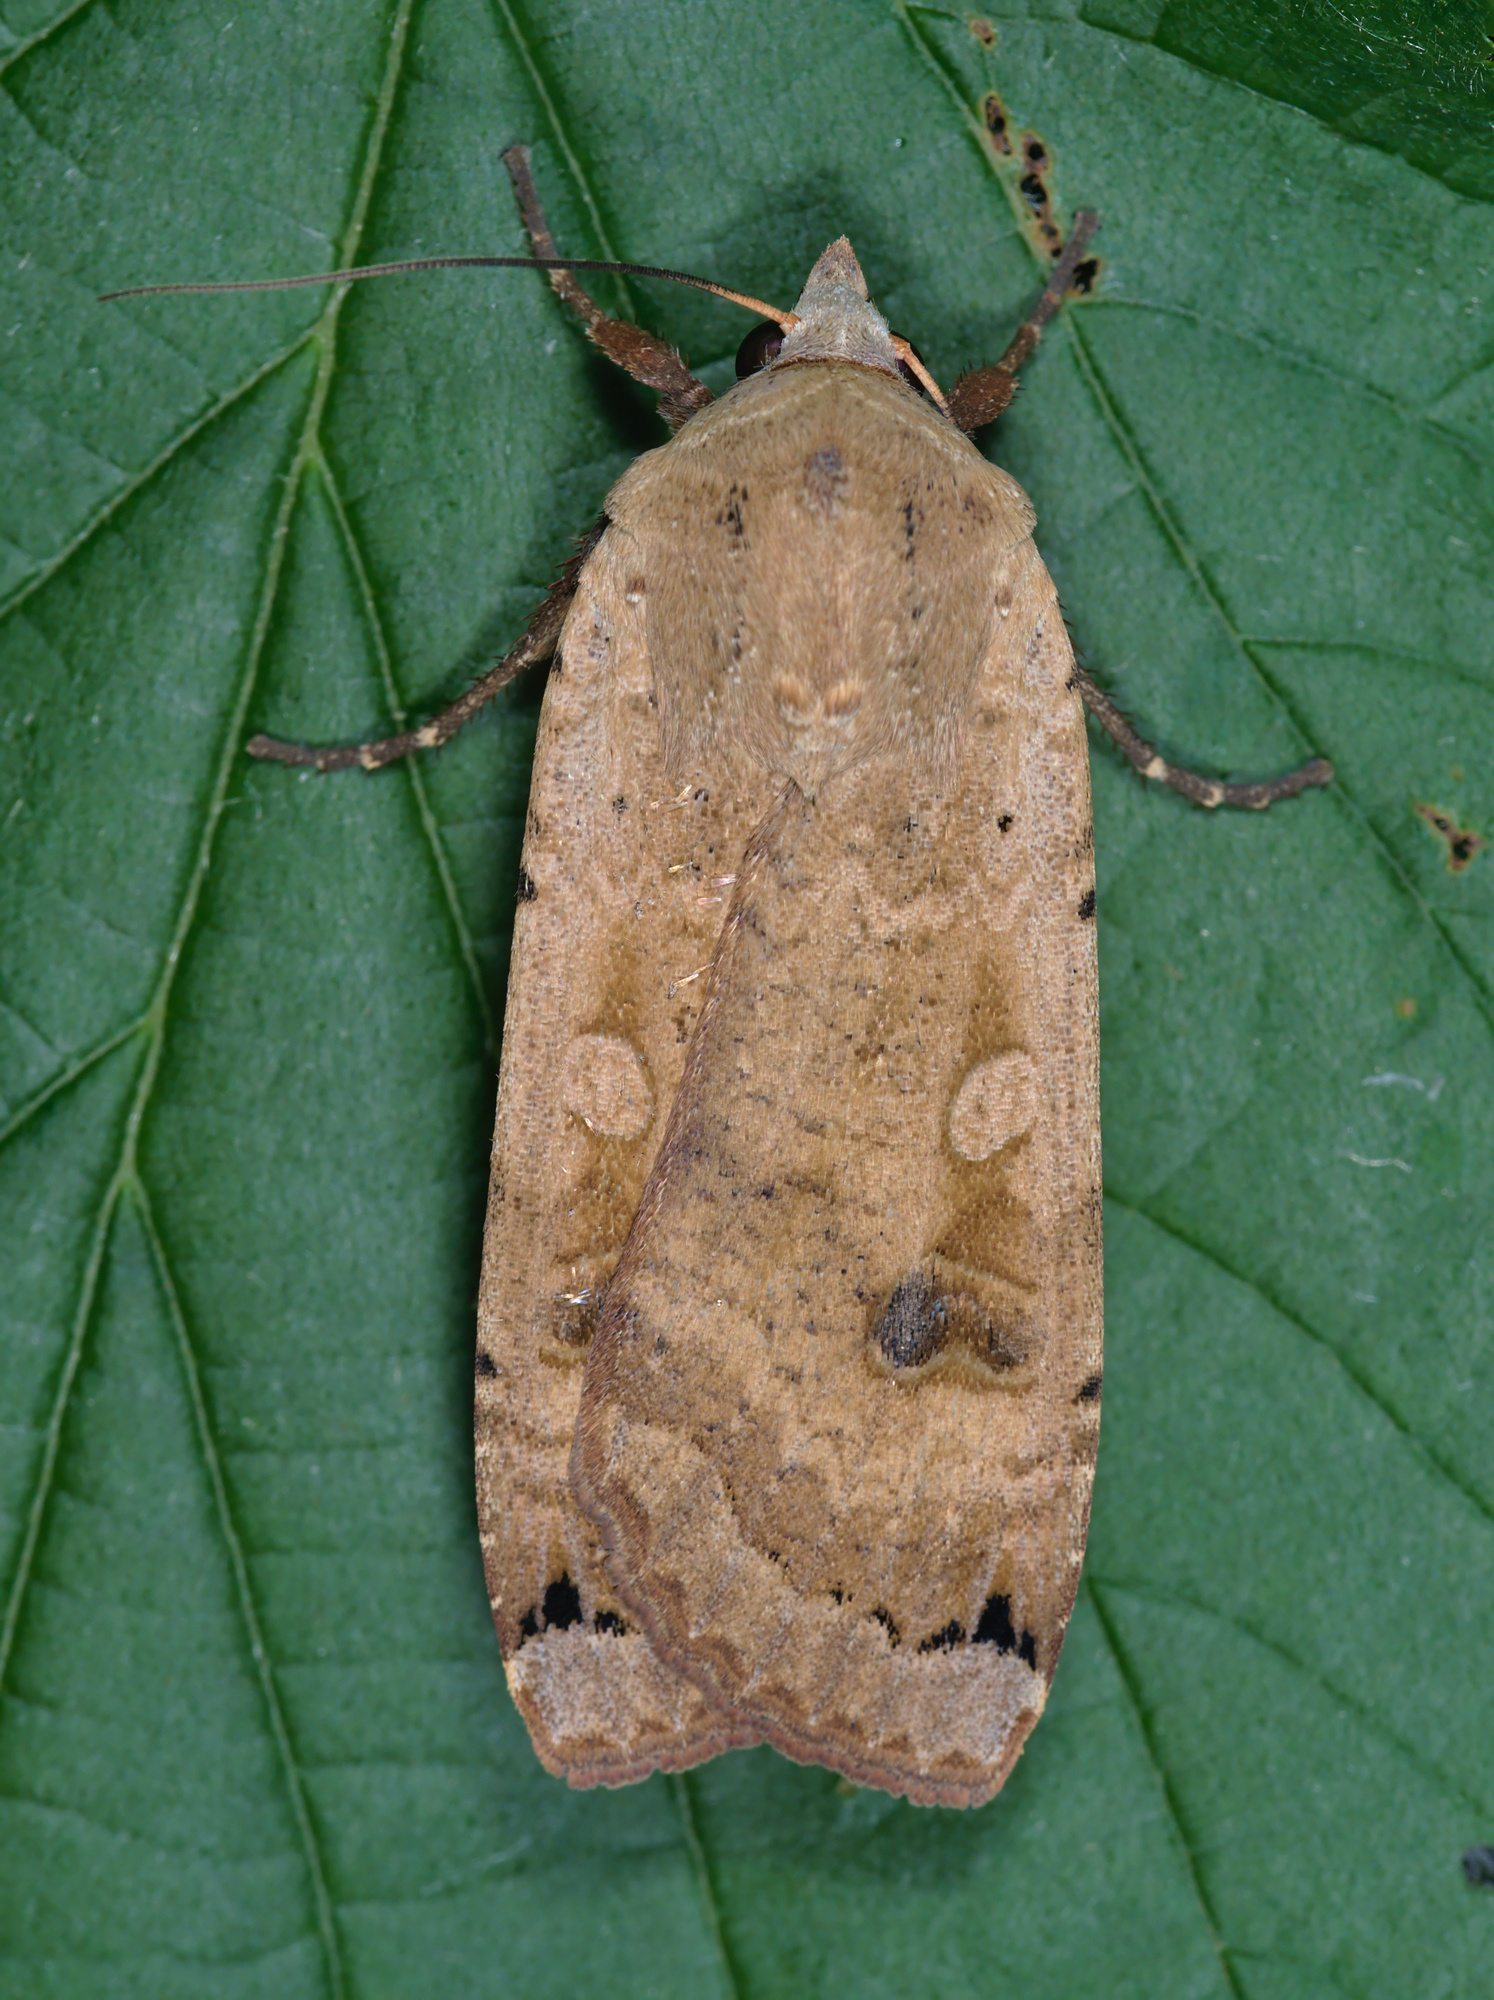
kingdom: Animalia
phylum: Arthropoda
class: Insecta
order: Lepidoptera
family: Noctuidae
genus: Noctua
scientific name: Noctua pronuba
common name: Large yellow underwing
